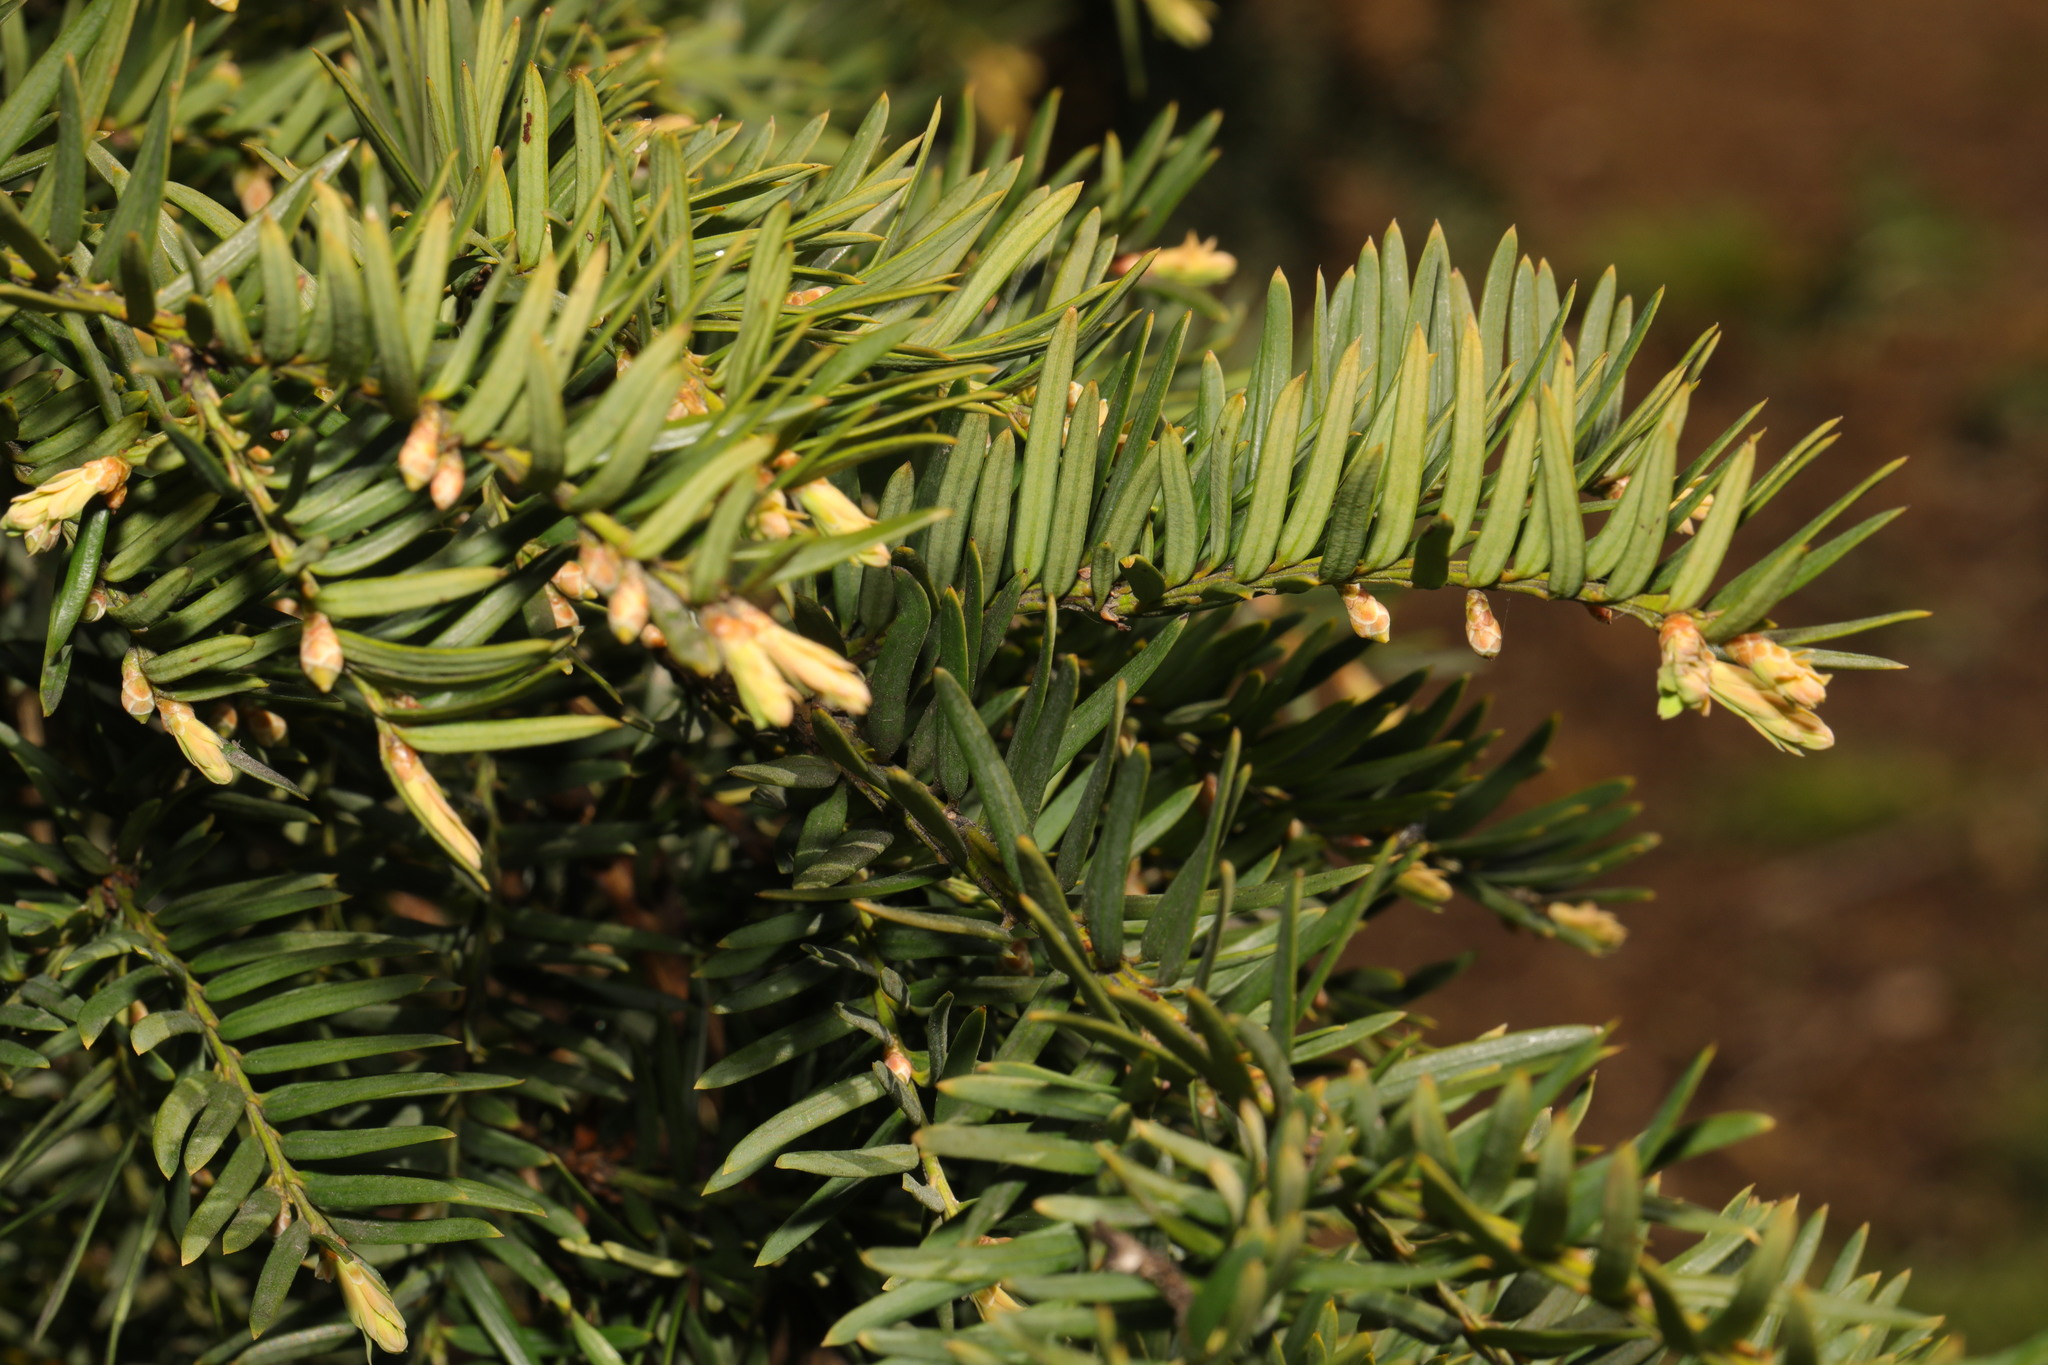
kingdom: Plantae
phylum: Tracheophyta
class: Pinopsida
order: Pinales
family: Taxaceae
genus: Taxus
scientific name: Taxus baccata
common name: Yew
